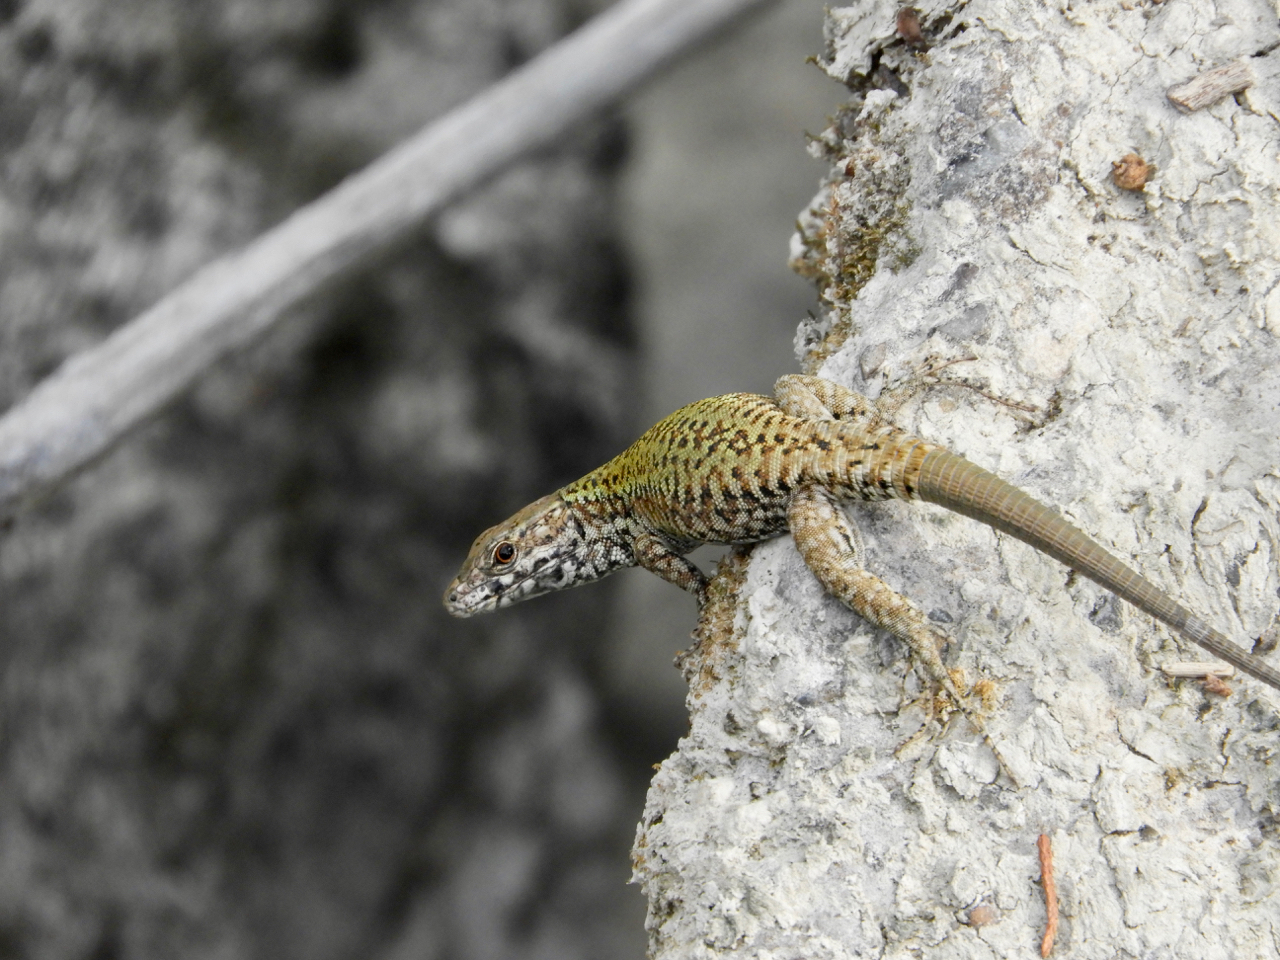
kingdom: Animalia
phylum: Chordata
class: Squamata
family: Lacertidae
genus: Podarcis
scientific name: Podarcis muralis
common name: Common wall lizard
